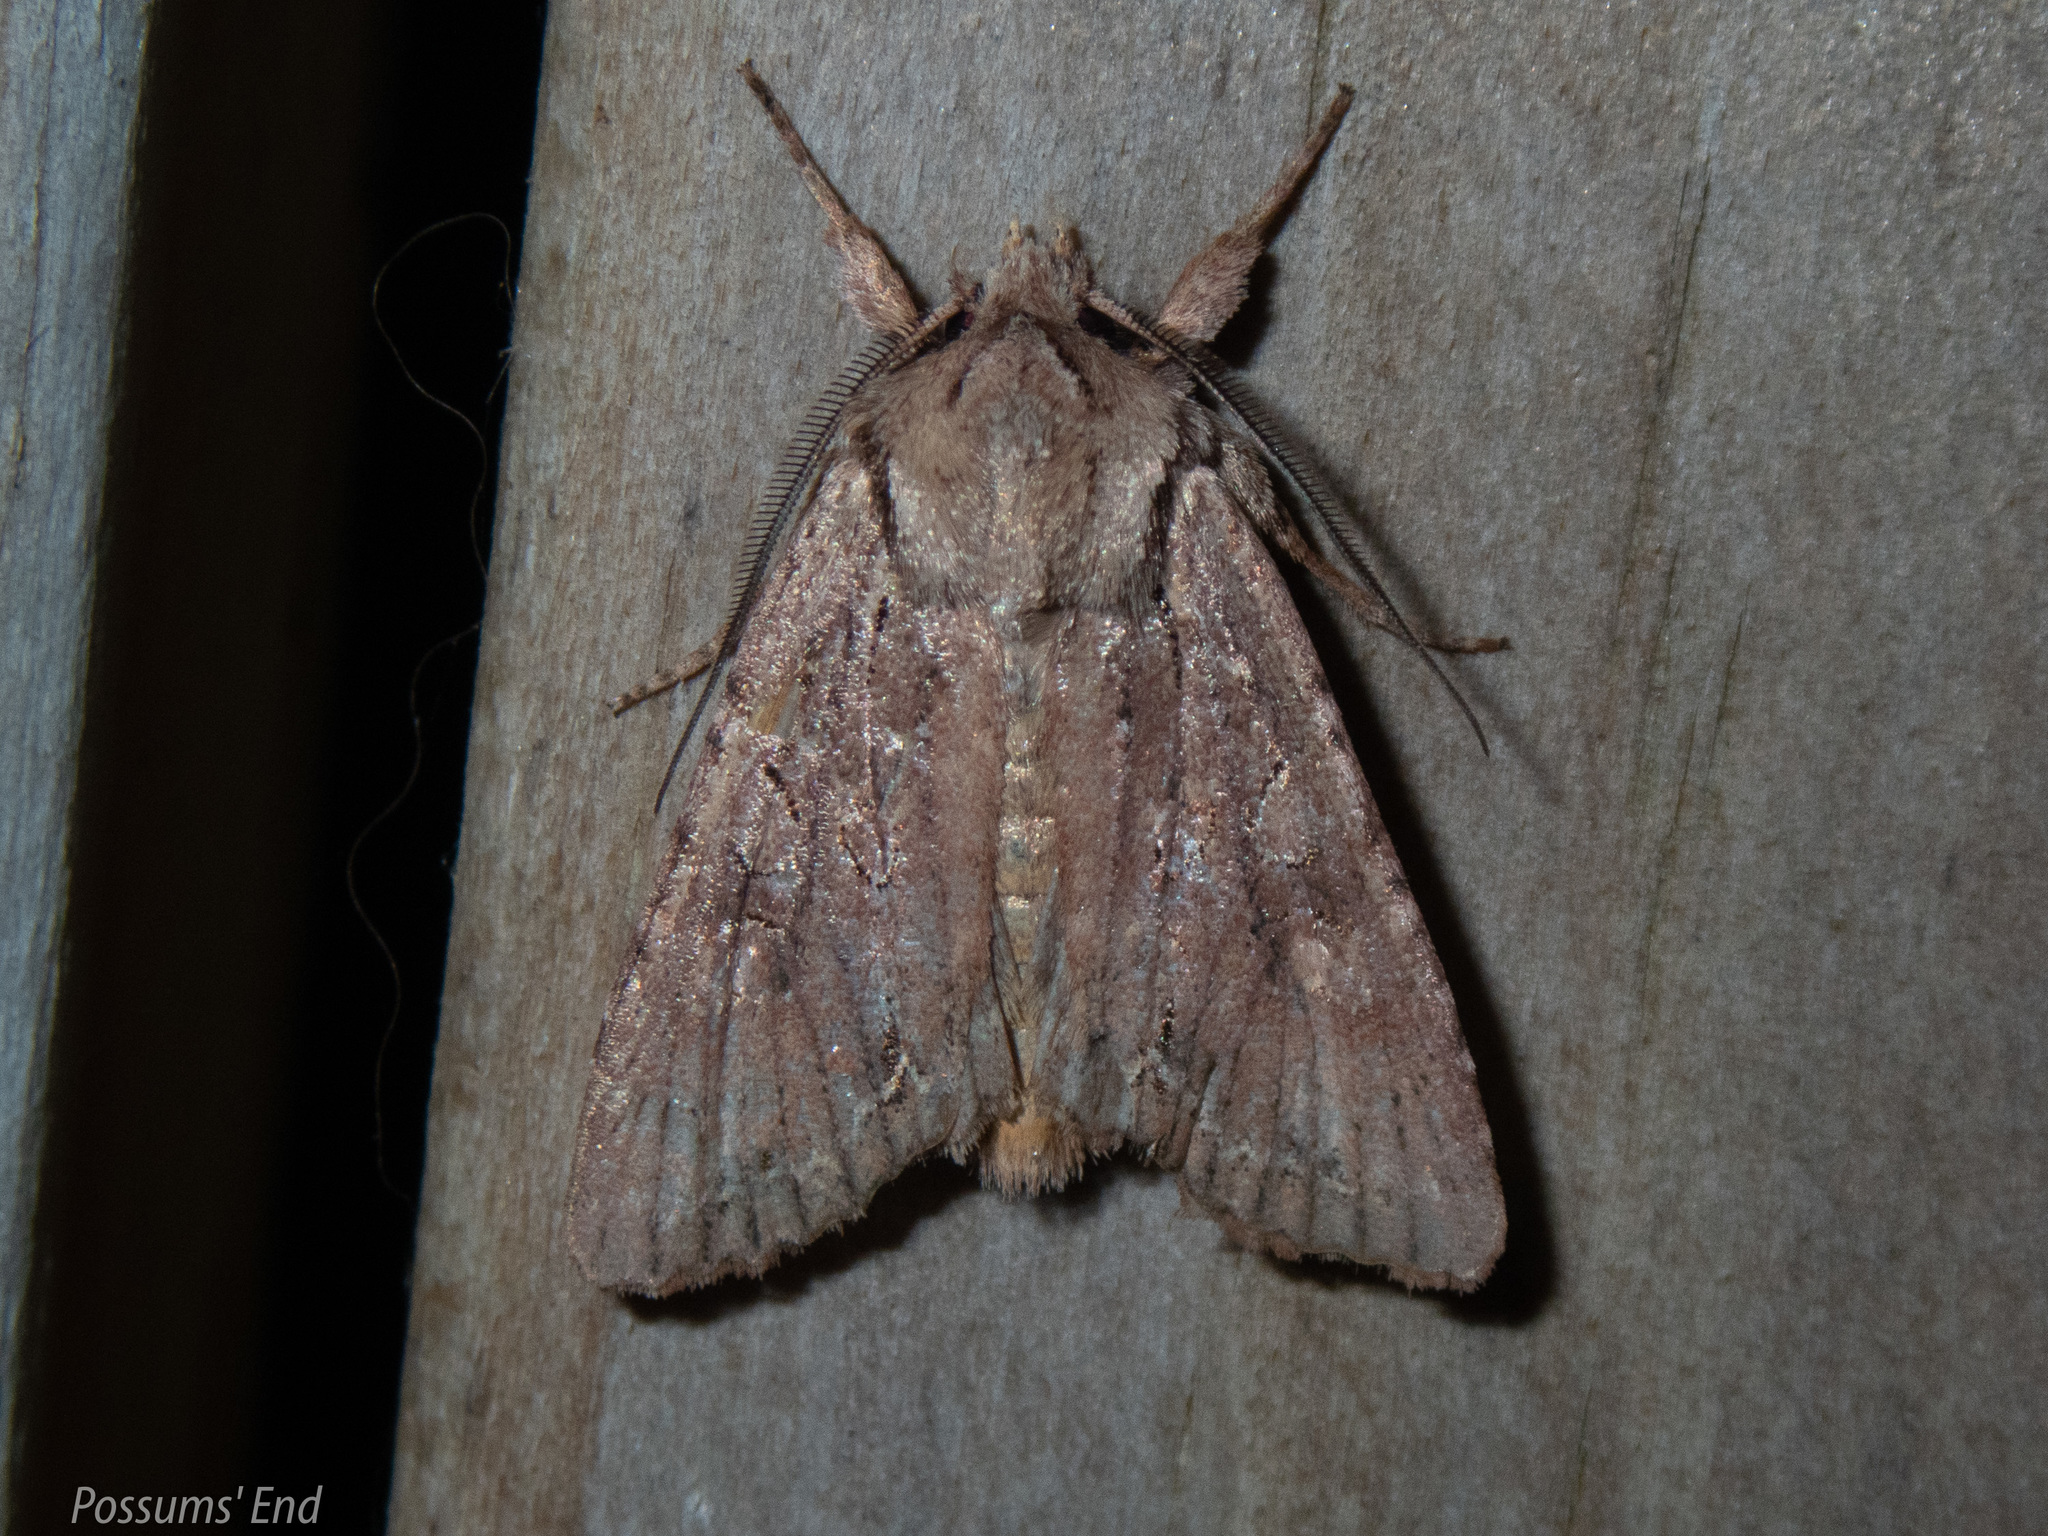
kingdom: Animalia
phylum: Arthropoda
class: Insecta
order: Lepidoptera
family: Noctuidae
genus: Ichneutica
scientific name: Ichneutica
